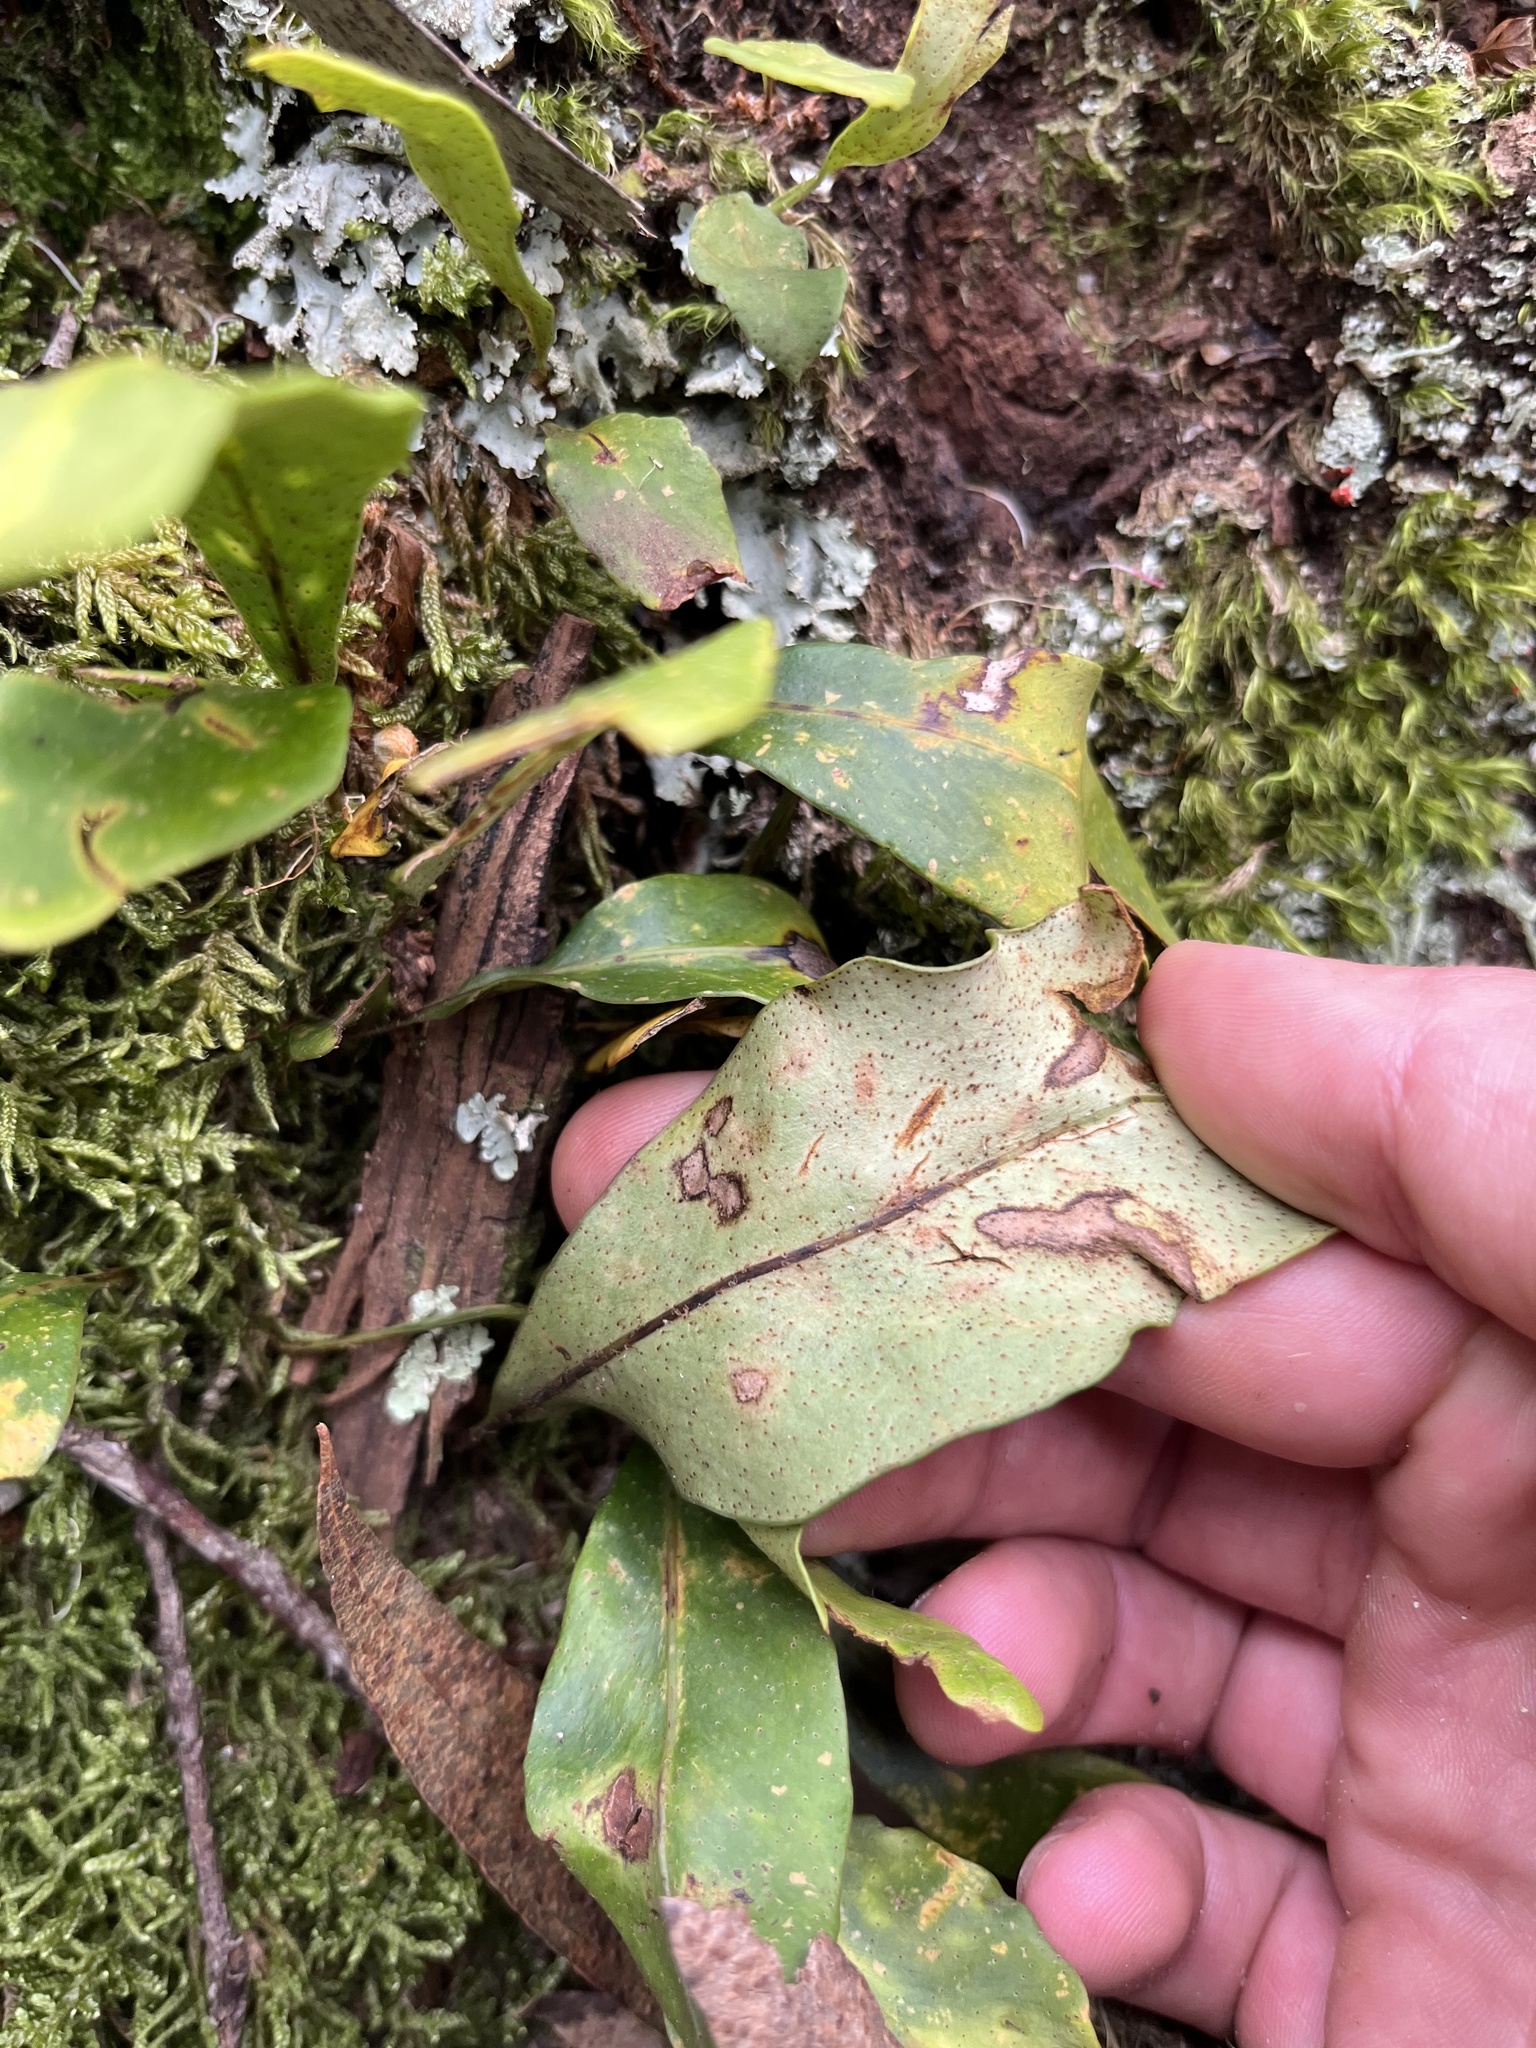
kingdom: Plantae
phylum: Tracheophyta
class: Polypodiopsida
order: Polypodiales
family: Polypodiaceae
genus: Pleopeltis
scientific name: Pleopeltis macrocarpa
